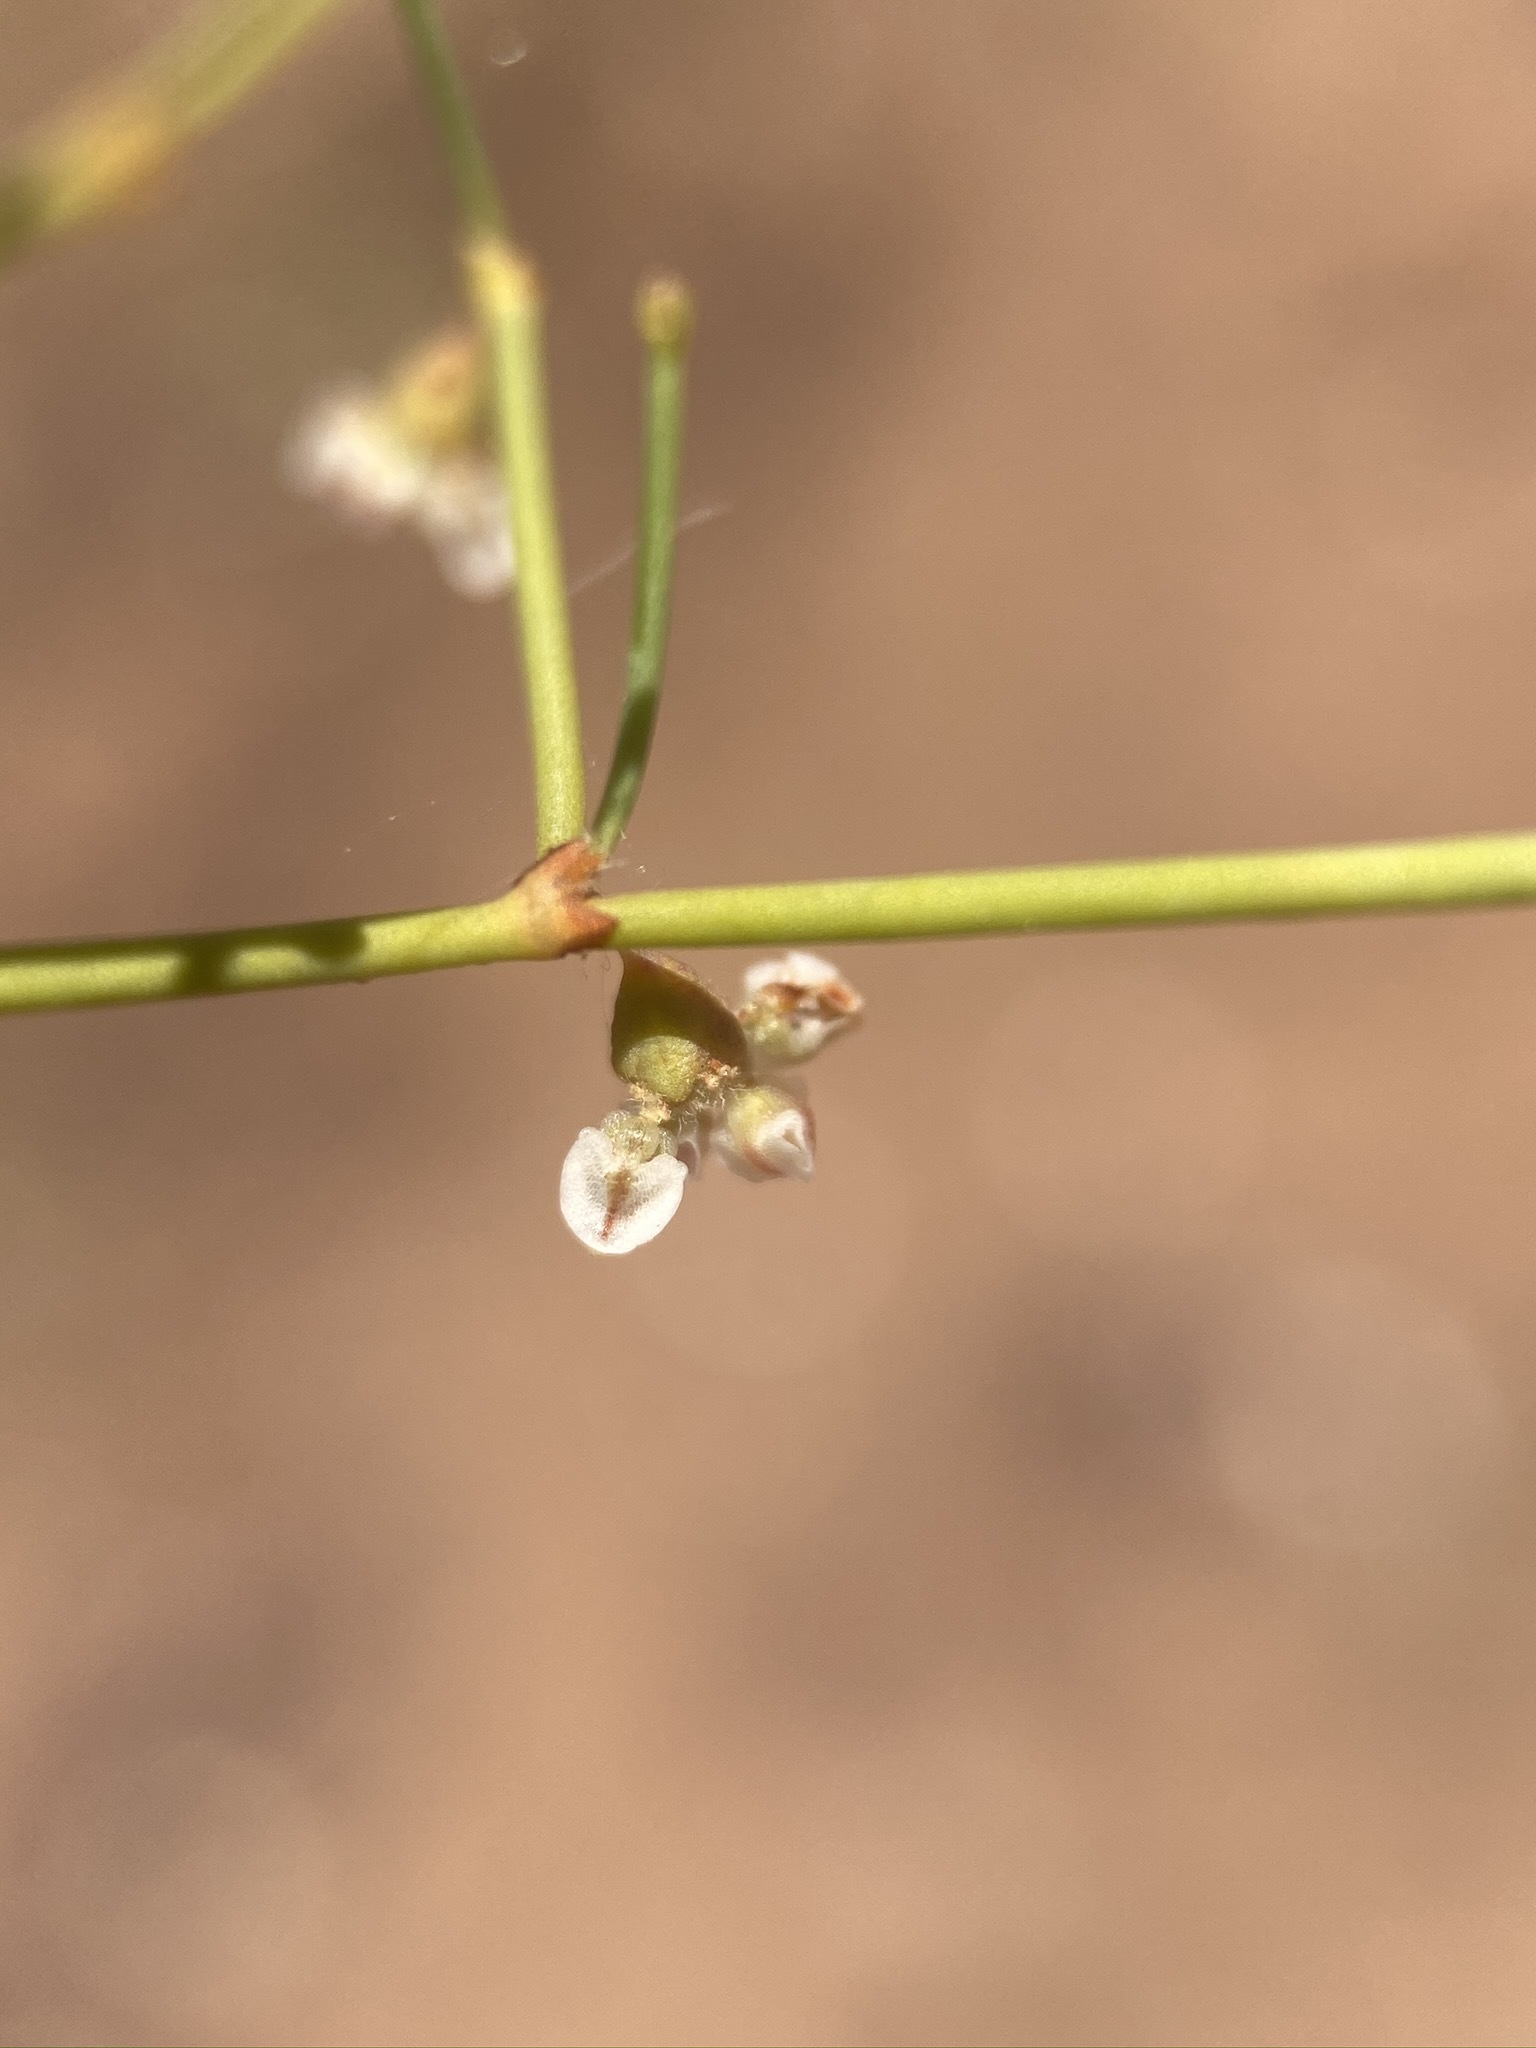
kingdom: Plantae
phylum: Tracheophyta
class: Magnoliopsida
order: Caryophyllales
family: Polygonaceae
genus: Eriogonum
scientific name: Eriogonum deflexum
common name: Skeleton-weed
